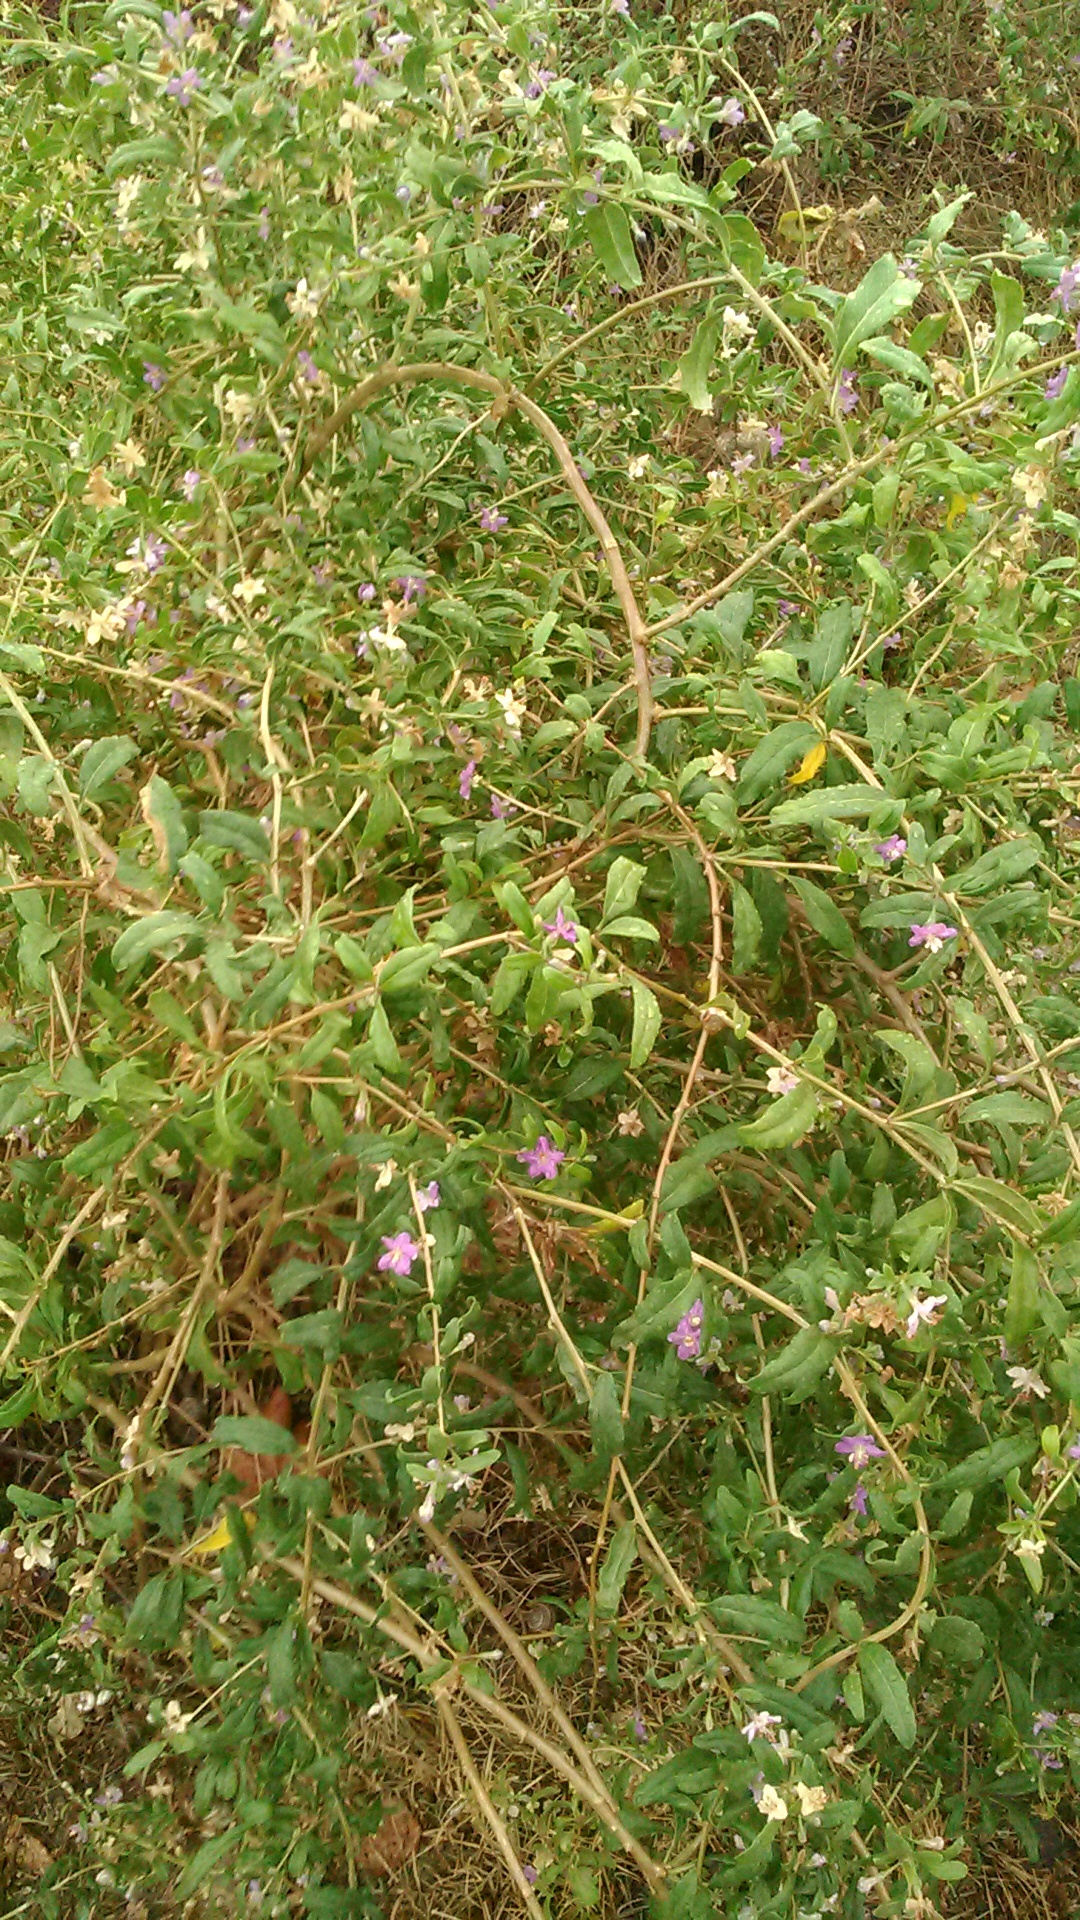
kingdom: Plantae
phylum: Tracheophyta
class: Magnoliopsida
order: Solanales
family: Solanaceae
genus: Lycium
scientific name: Lycium barbarum
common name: Duke of argyll's teaplant
